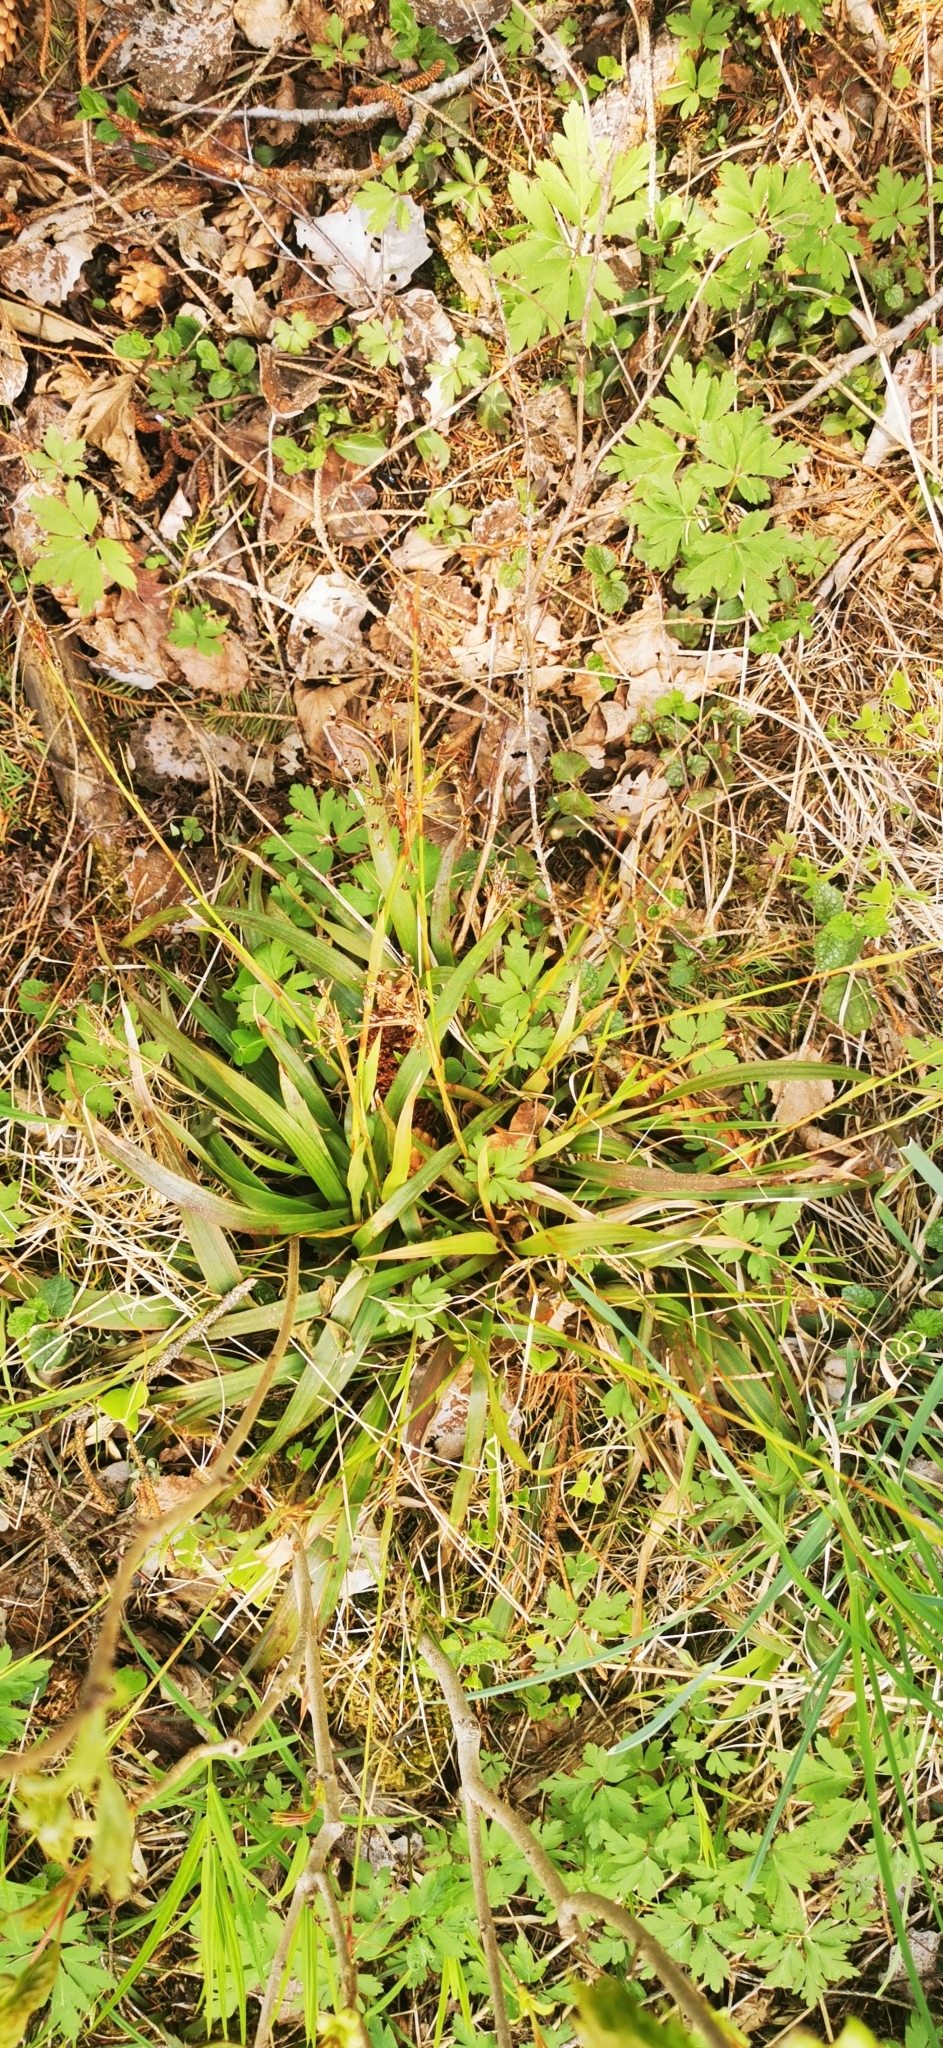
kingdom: Plantae
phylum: Tracheophyta
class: Liliopsida
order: Poales
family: Juncaceae
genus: Luzula
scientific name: Luzula pilosa
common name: Hairy wood-rush
